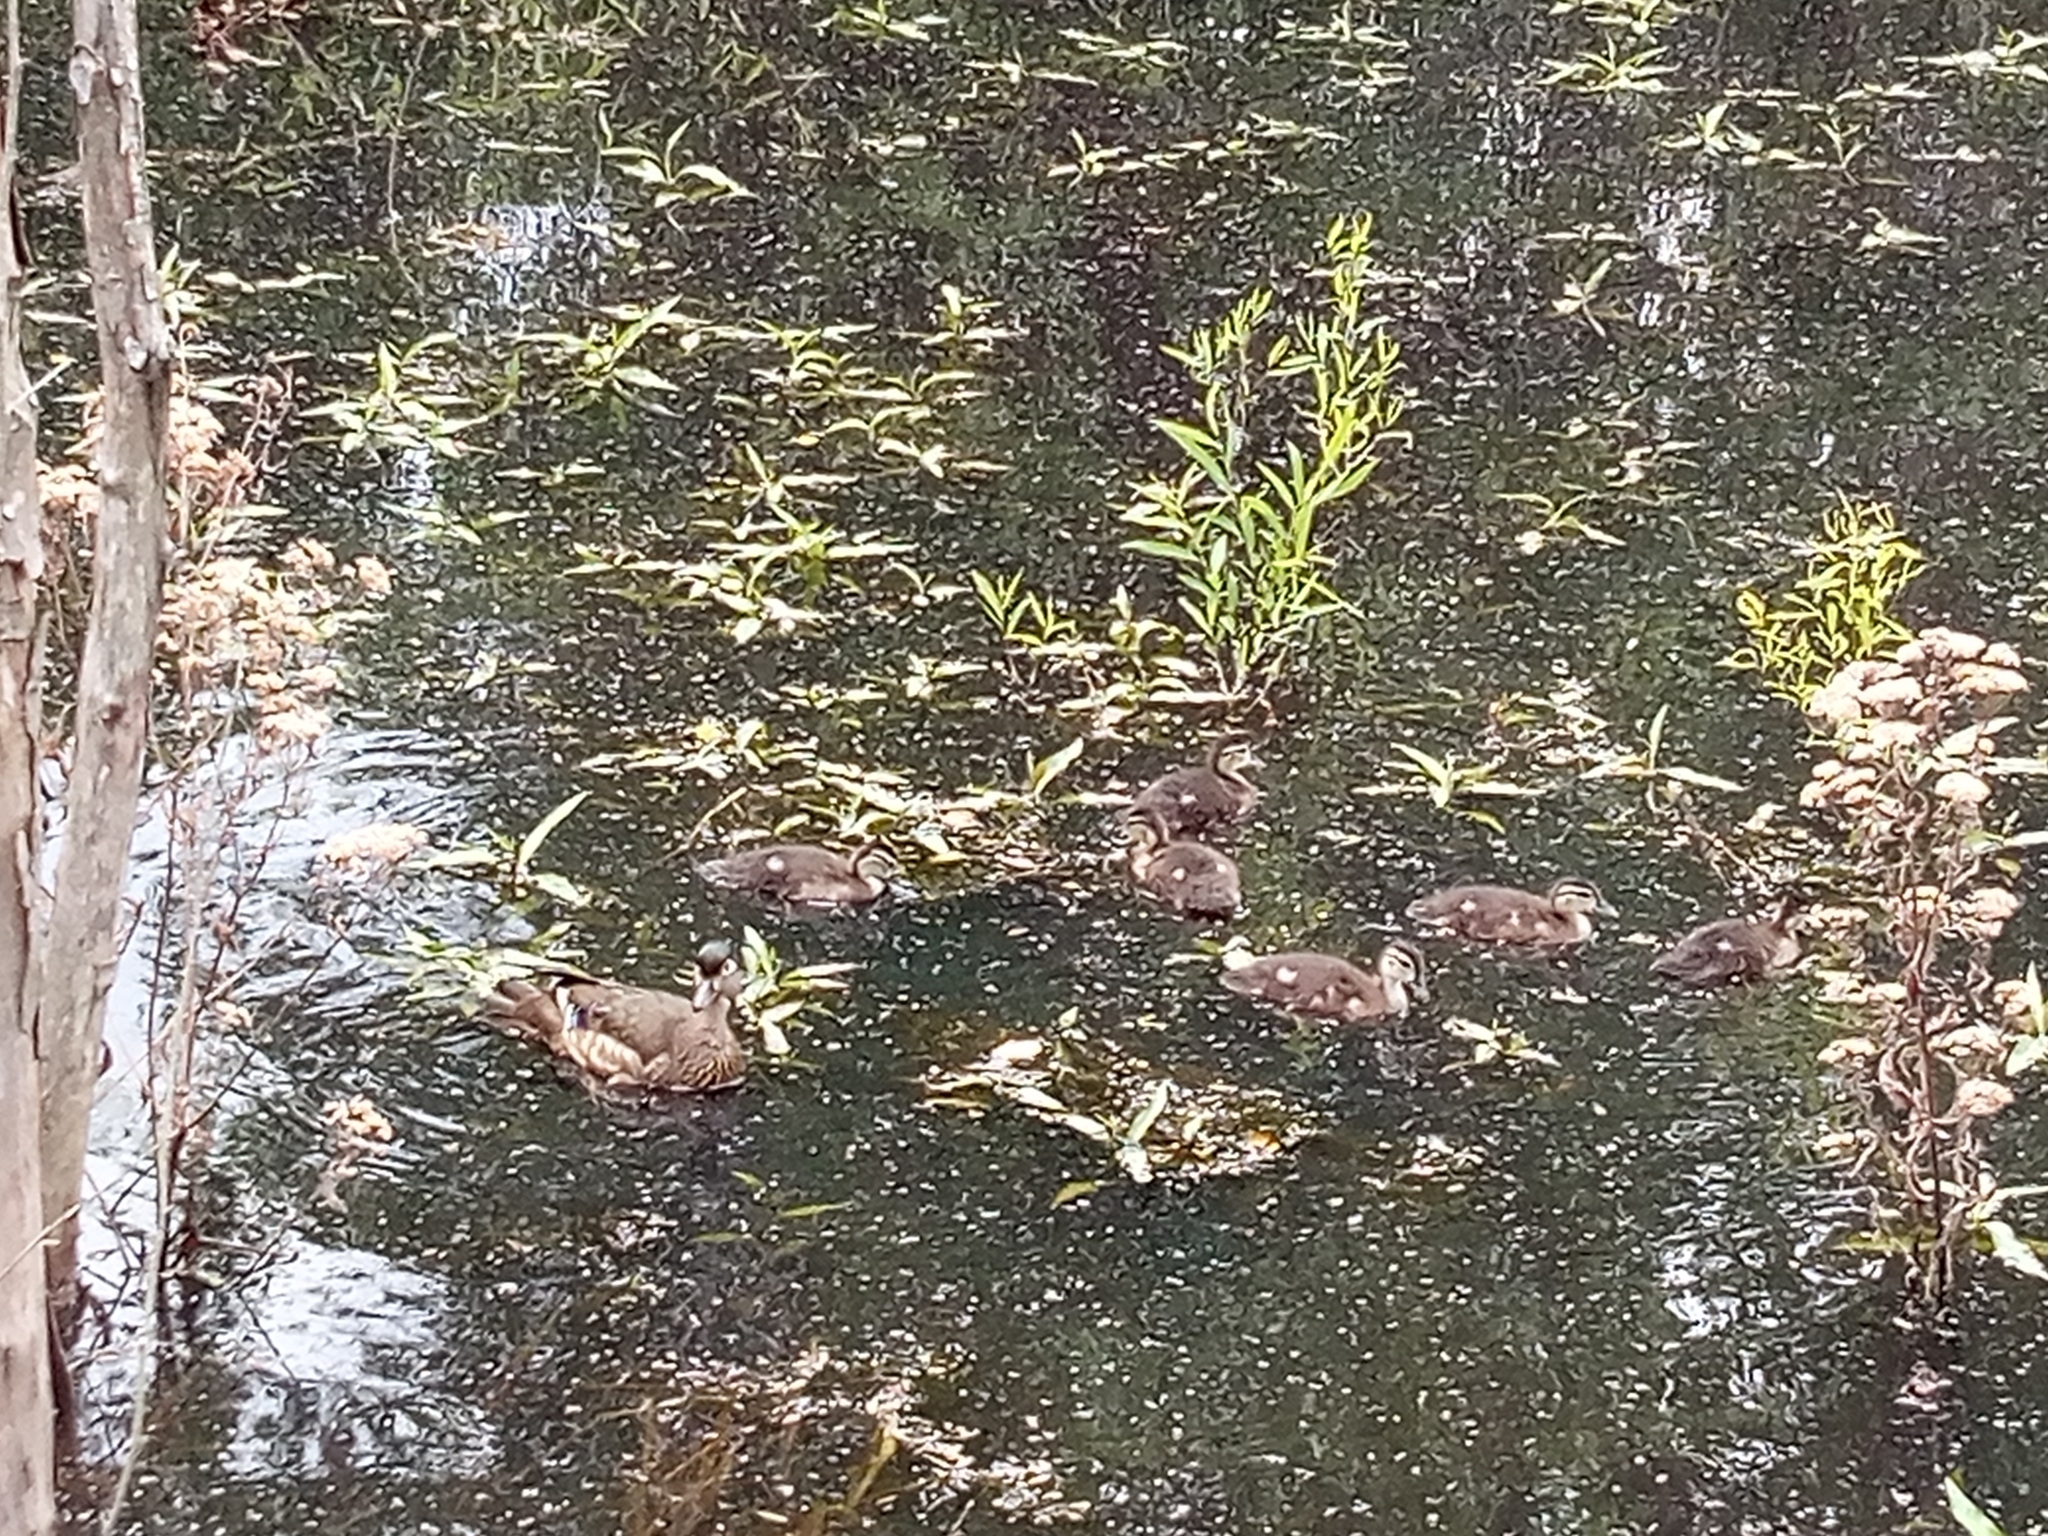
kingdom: Animalia
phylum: Chordata
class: Aves
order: Anseriformes
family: Anatidae
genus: Aix
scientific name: Aix sponsa
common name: Wood duck
